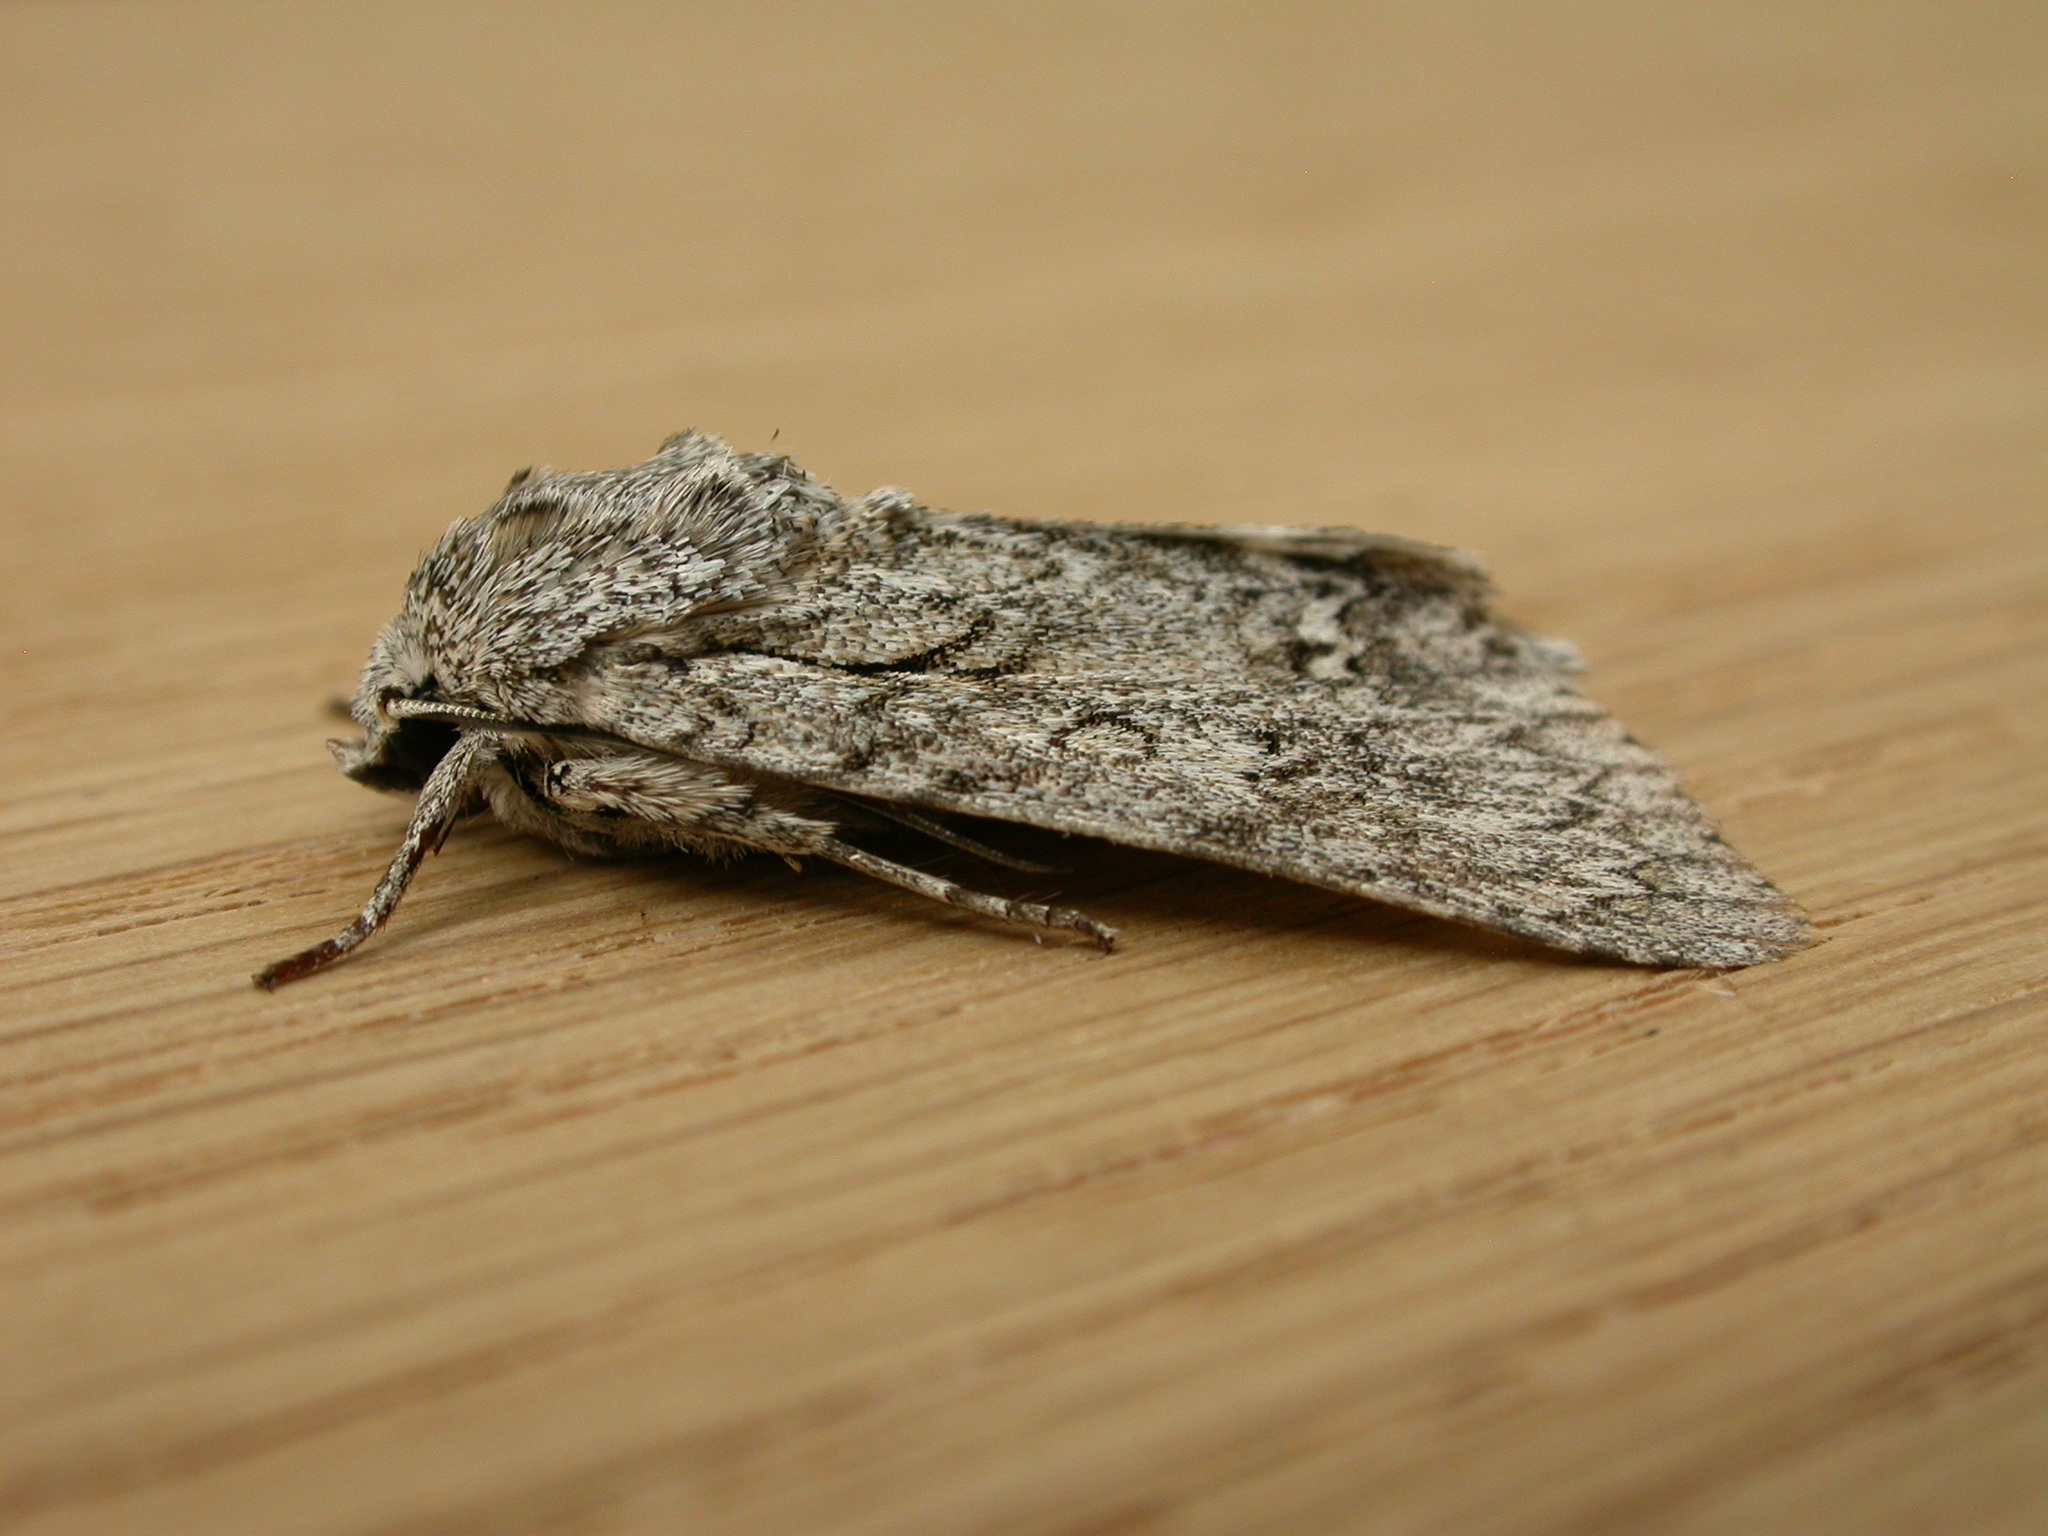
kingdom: Animalia
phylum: Arthropoda
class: Insecta
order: Lepidoptera
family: Noctuidae
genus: Acronicta
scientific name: Acronicta aceris
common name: Sycamore
